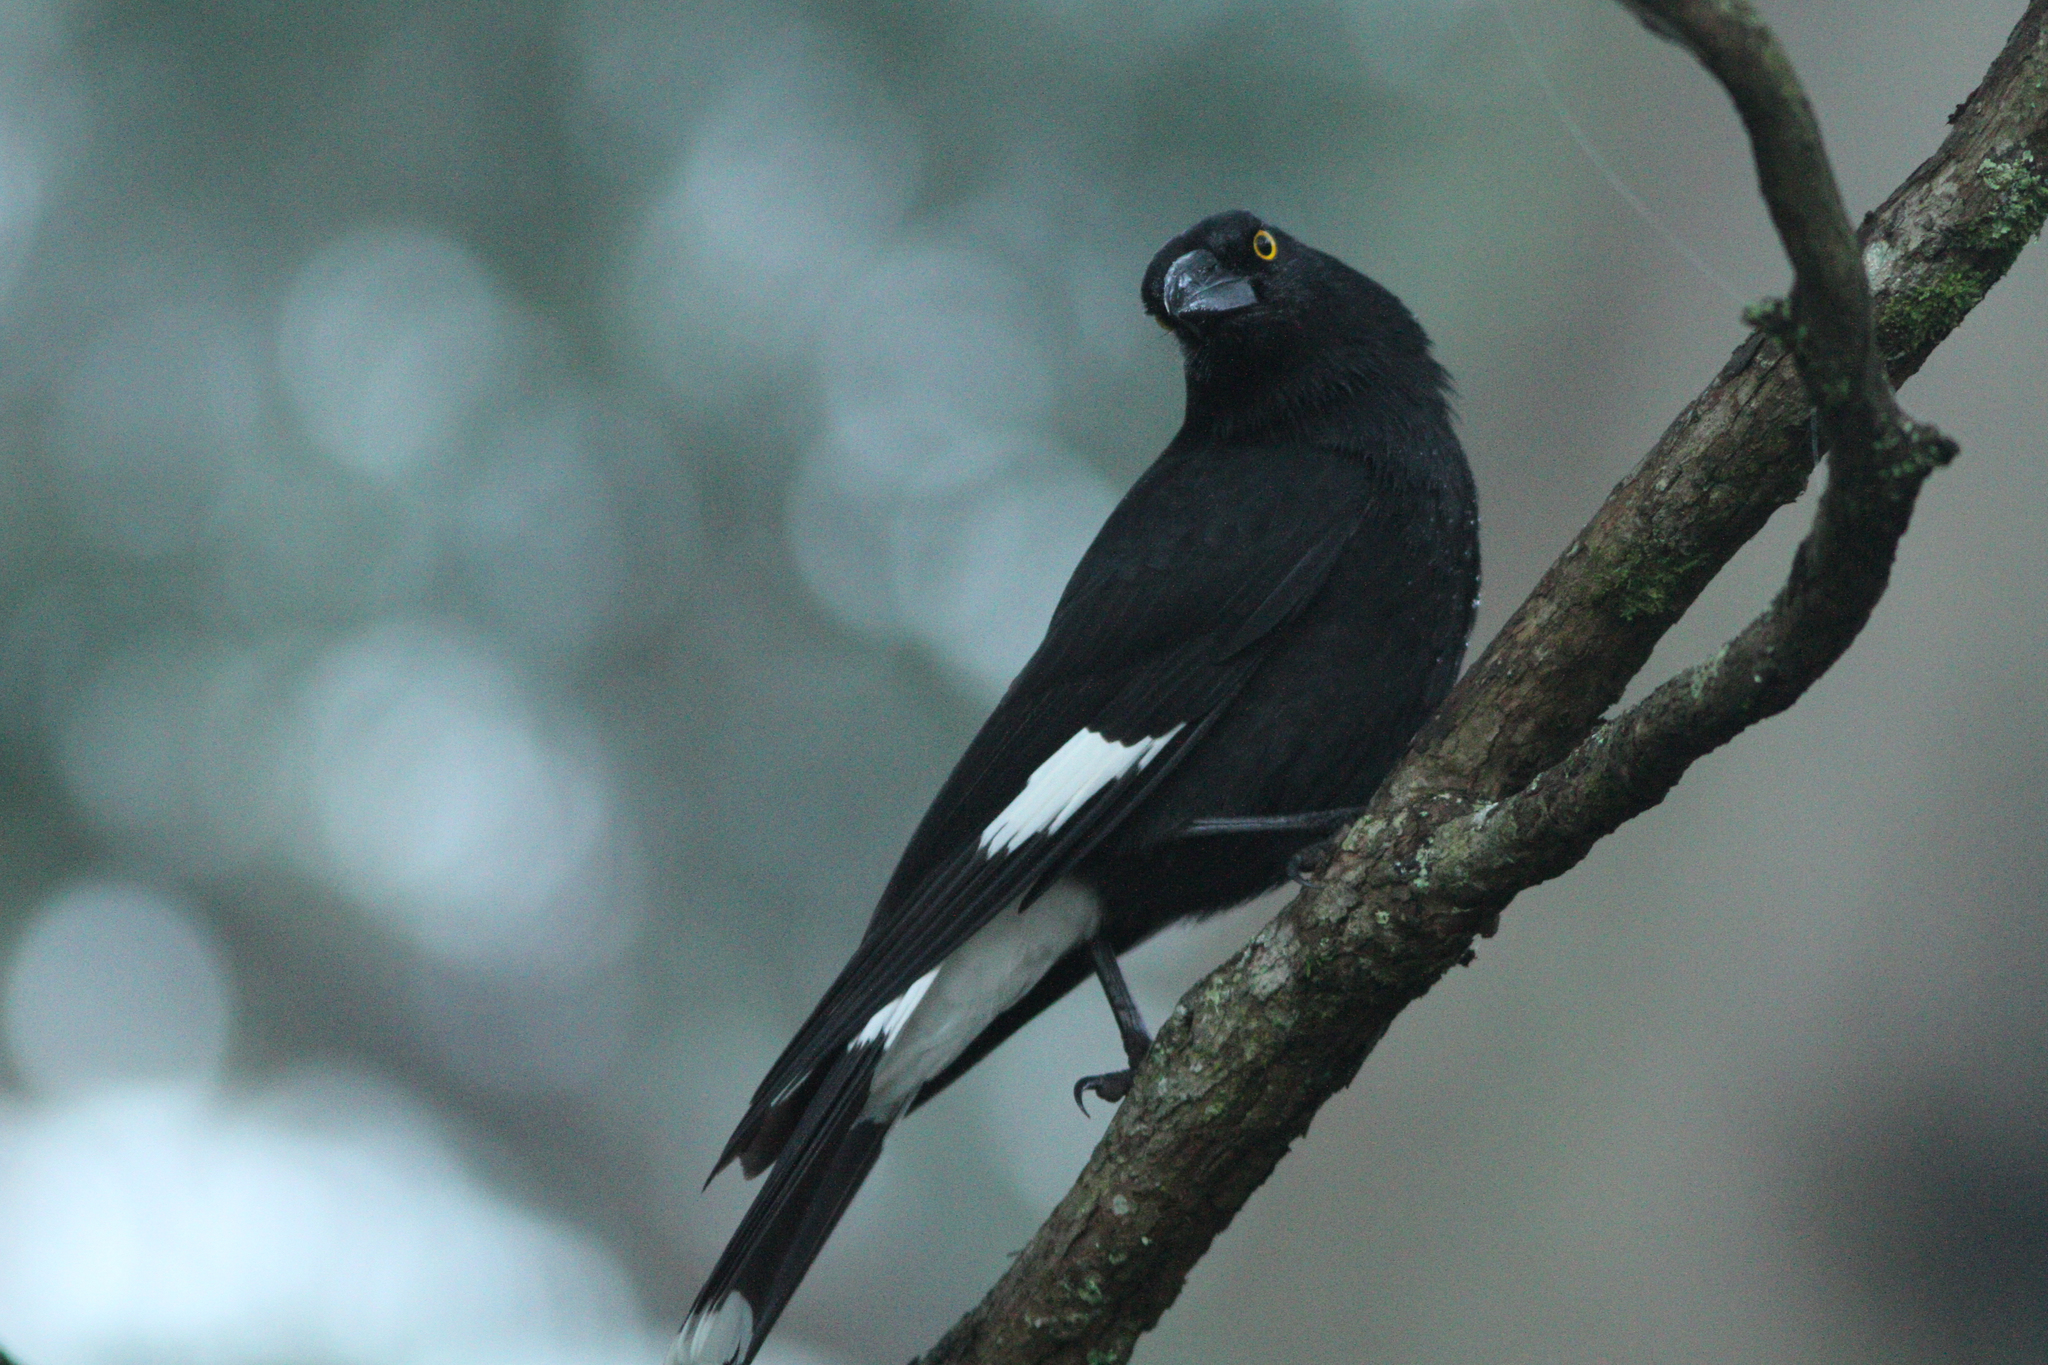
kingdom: Animalia
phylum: Chordata
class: Aves
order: Passeriformes
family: Cracticidae
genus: Strepera
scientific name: Strepera graculina
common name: Pied currawong
